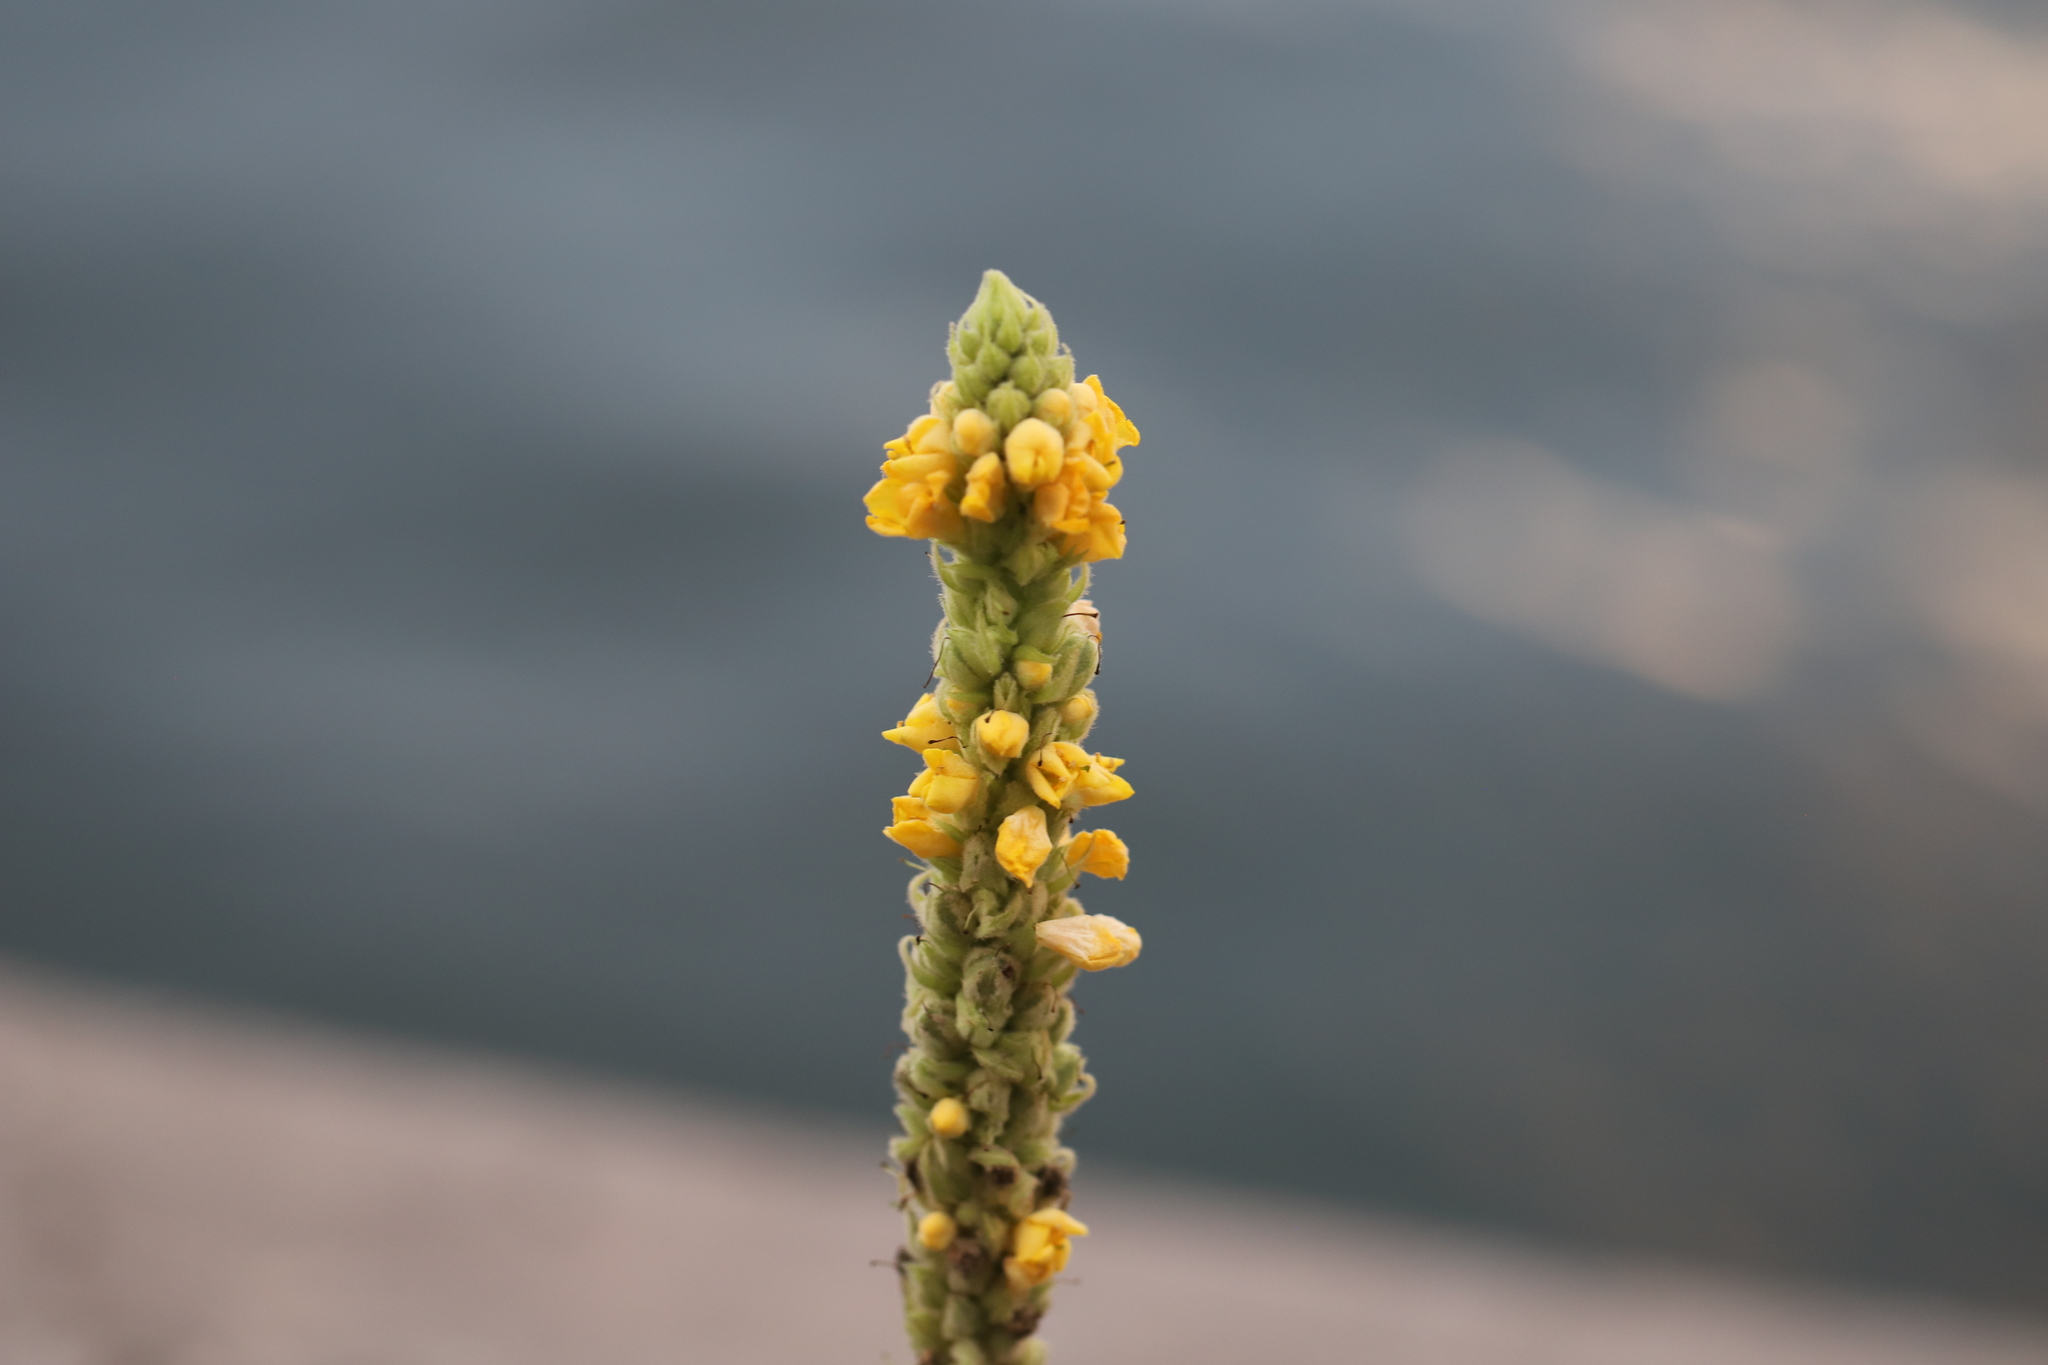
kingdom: Plantae
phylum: Tracheophyta
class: Magnoliopsida
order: Lamiales
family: Scrophulariaceae
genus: Verbascum
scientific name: Verbascum thapsus
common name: Common mullein
